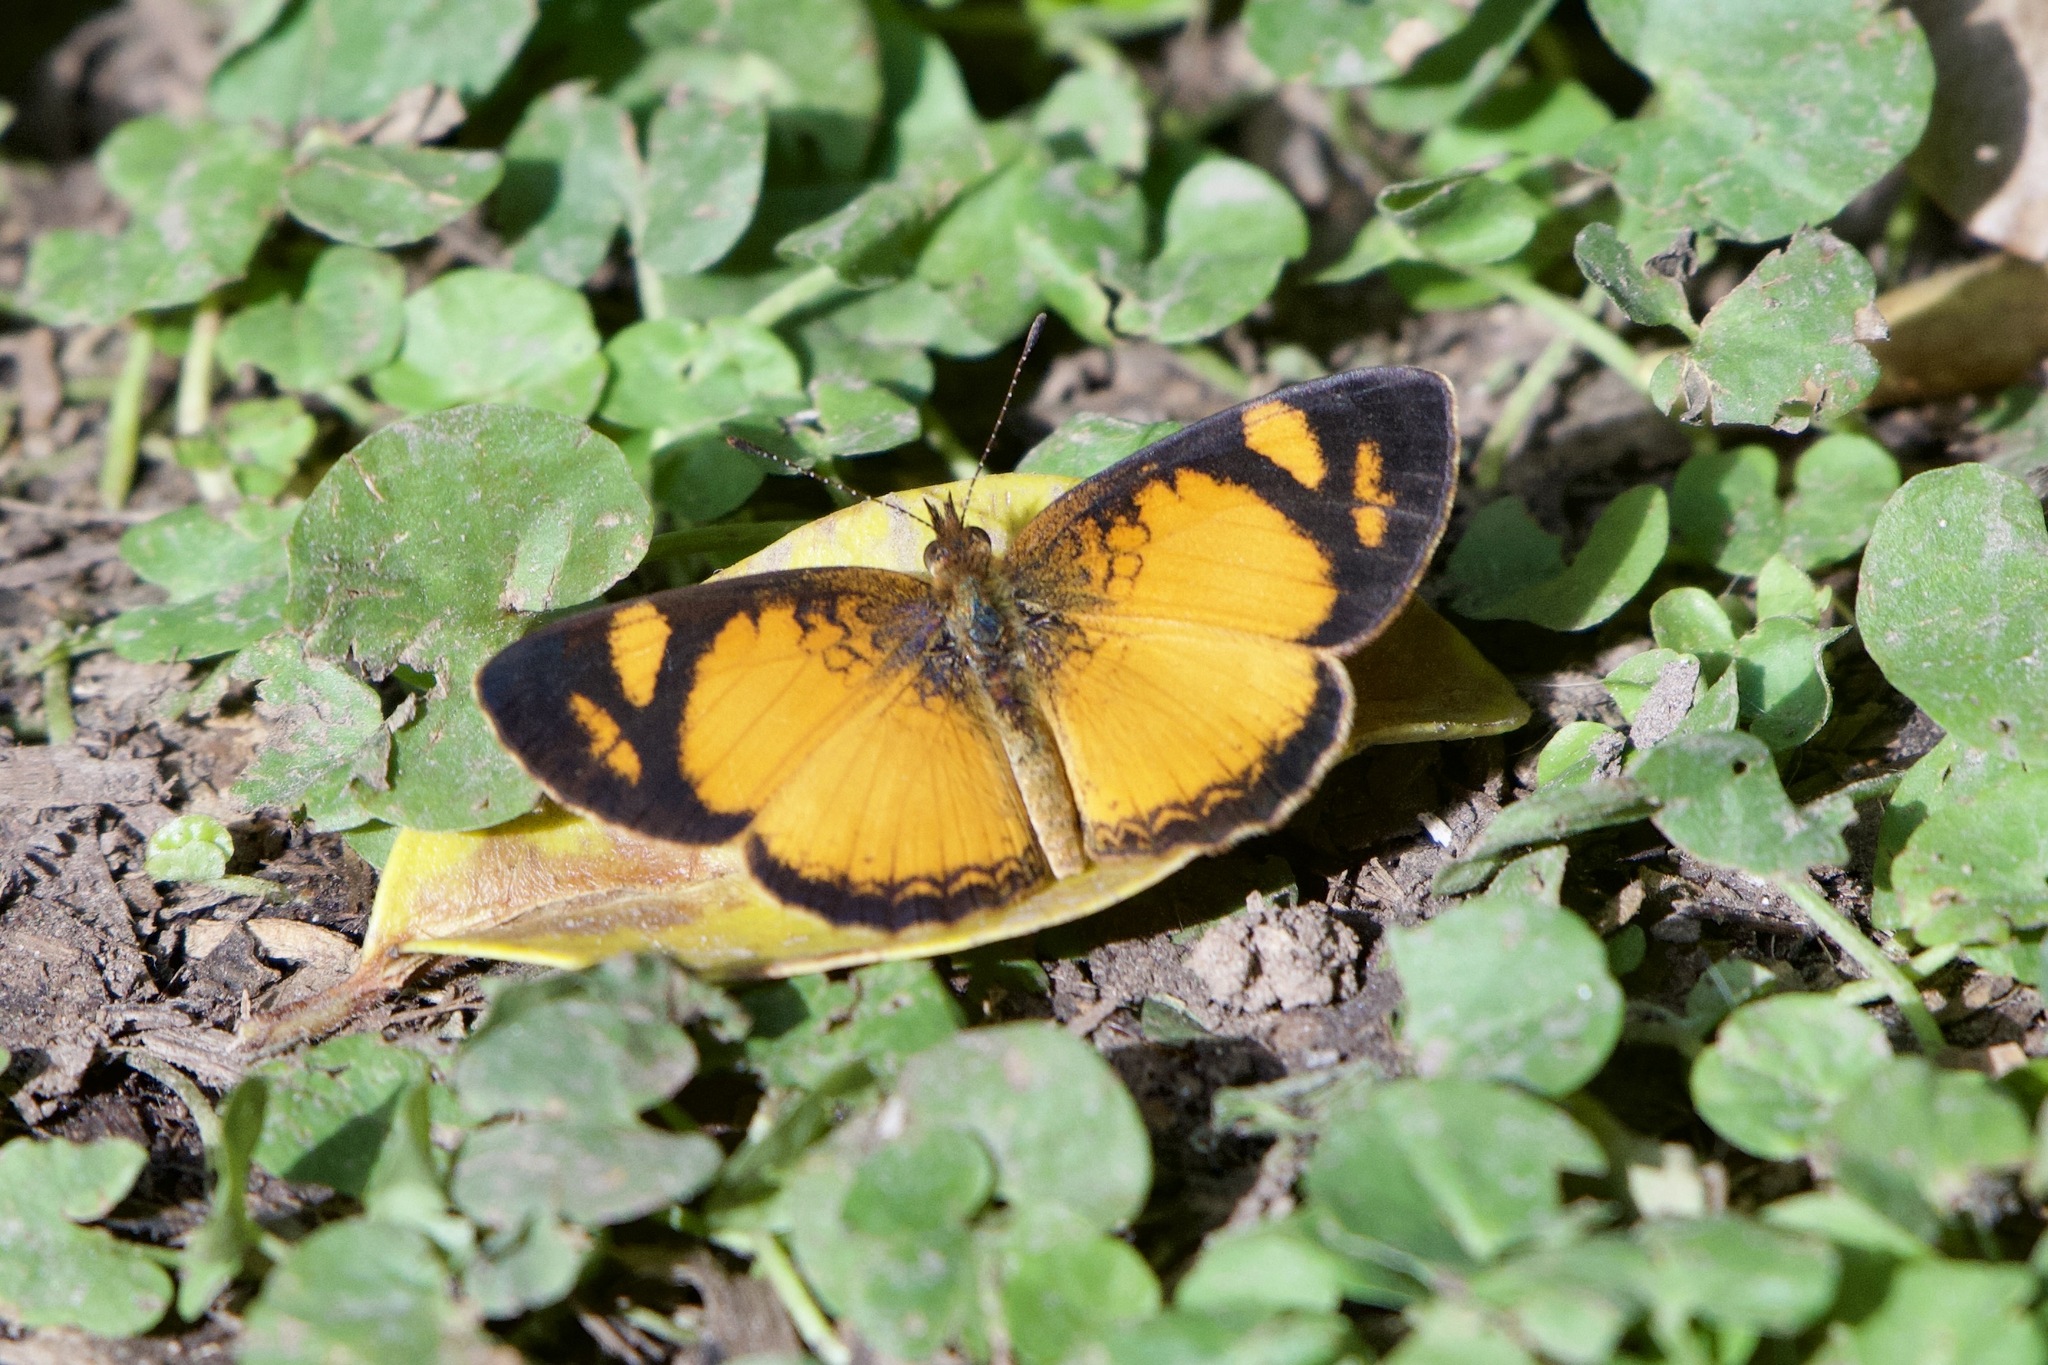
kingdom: Animalia
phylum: Arthropoda
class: Insecta
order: Lepidoptera
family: Nymphalidae
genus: Tegosa
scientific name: Tegosa claudina
